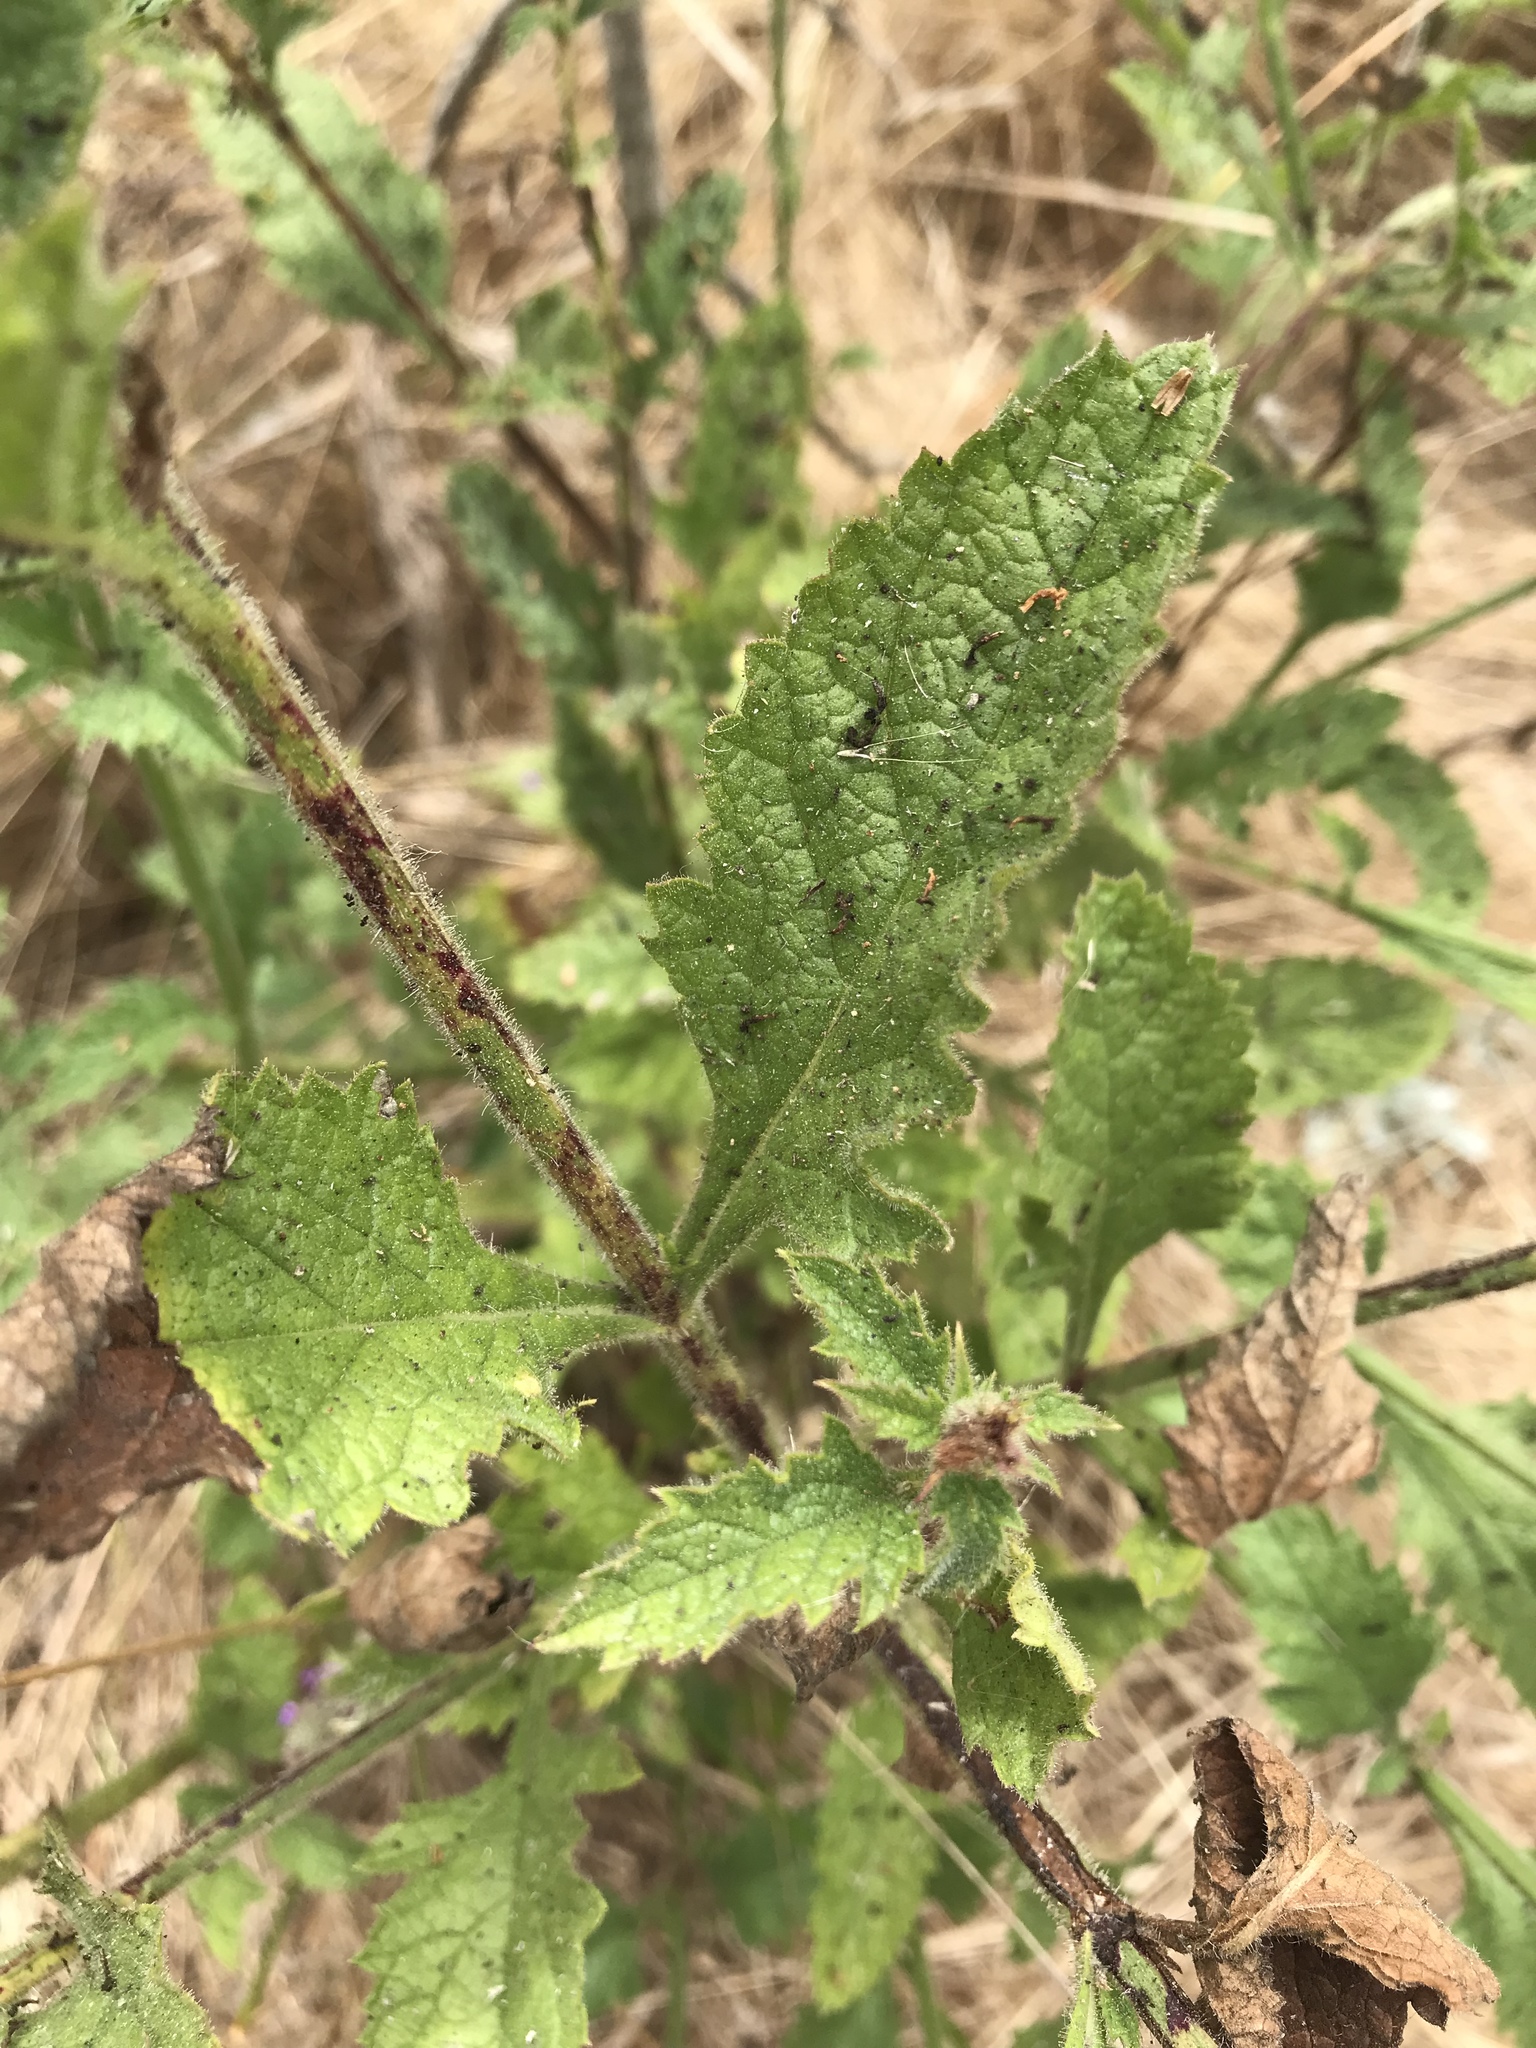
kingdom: Plantae
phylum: Tracheophyta
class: Magnoliopsida
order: Lamiales
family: Verbenaceae
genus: Verbena
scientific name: Verbena lasiostachys
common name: Vervain
